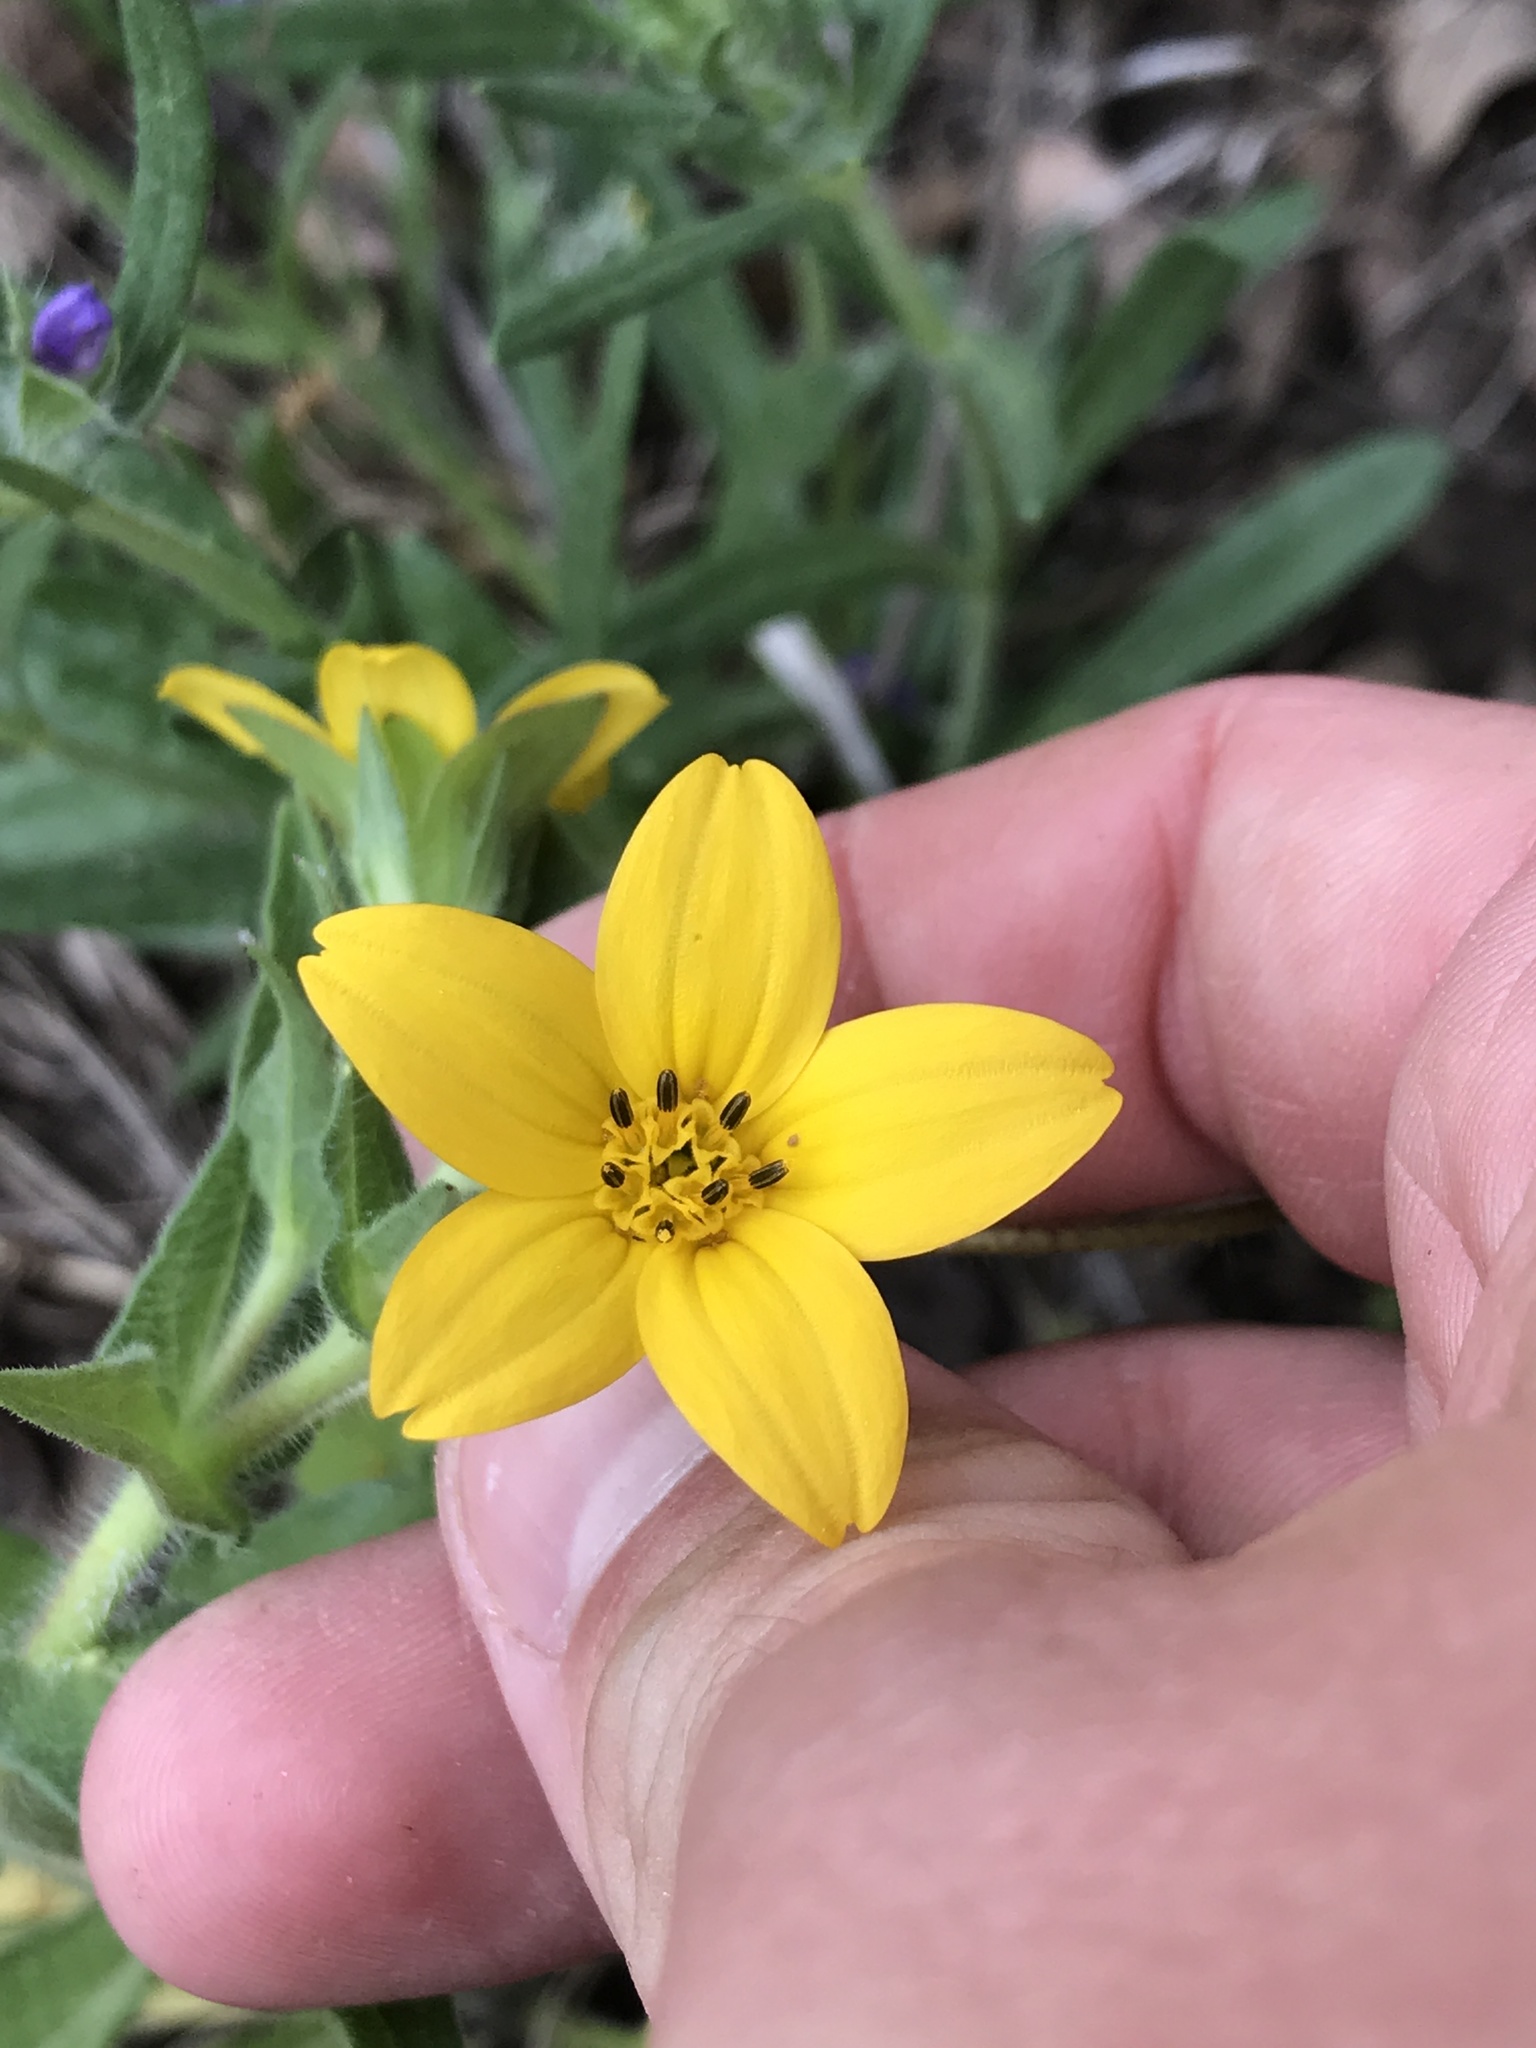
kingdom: Plantae
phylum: Tracheophyta
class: Magnoliopsida
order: Asterales
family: Asteraceae
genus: Lindheimera
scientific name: Lindheimera texana
